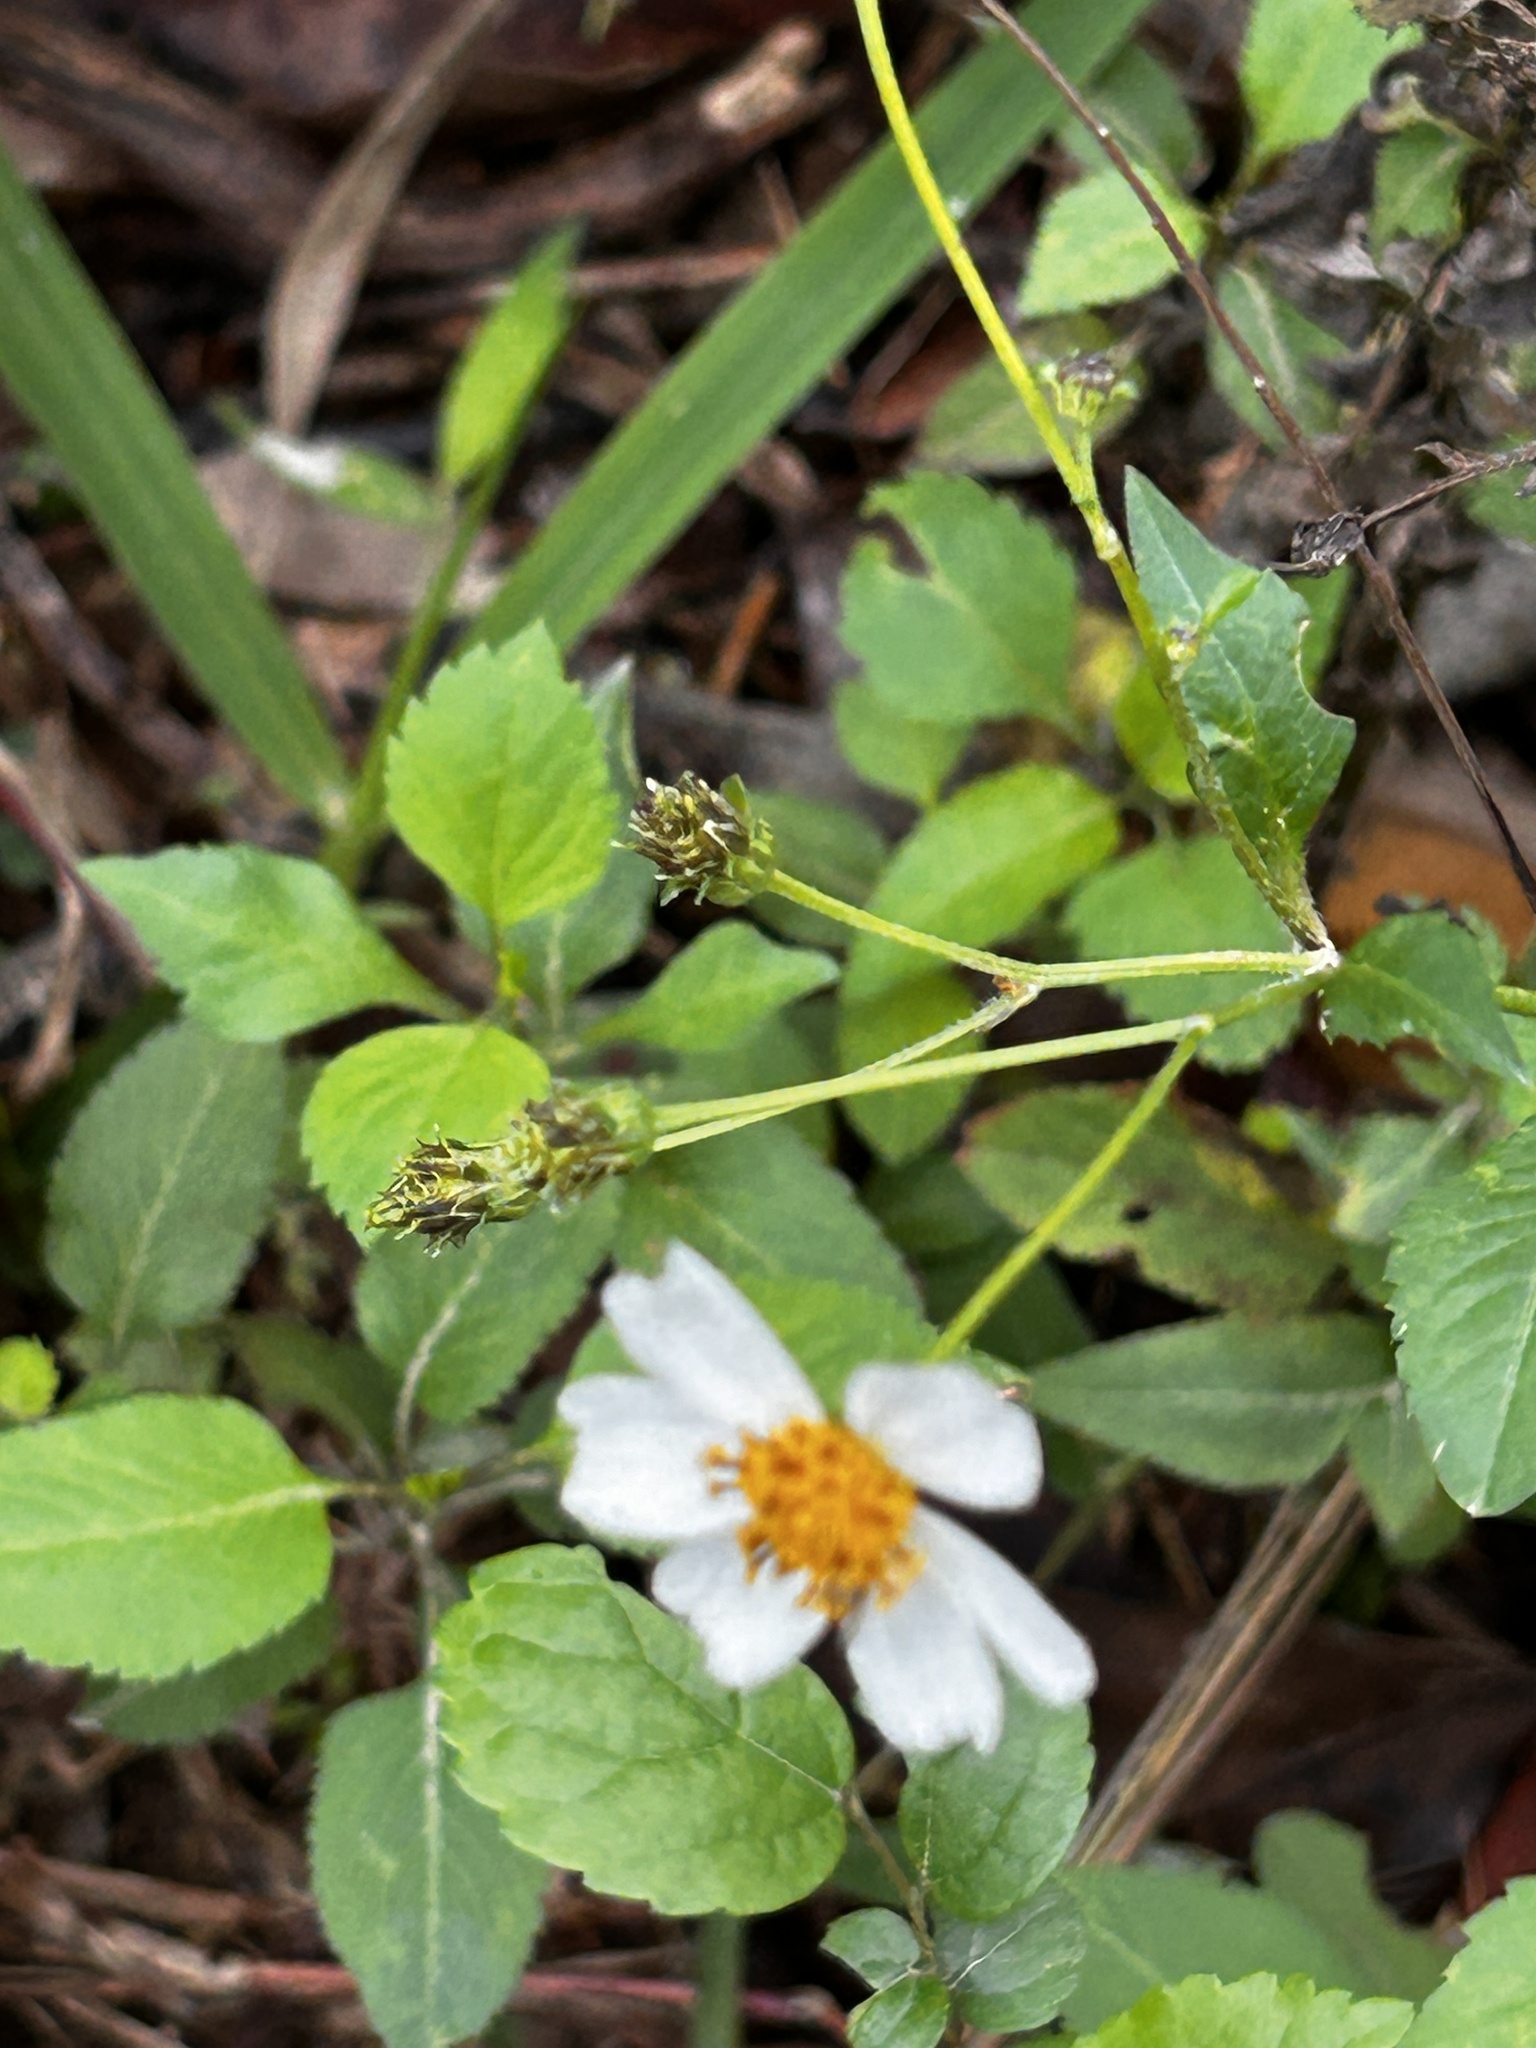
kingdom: Plantae
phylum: Tracheophyta
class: Magnoliopsida
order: Asterales
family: Asteraceae
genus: Bidens
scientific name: Bidens alba
